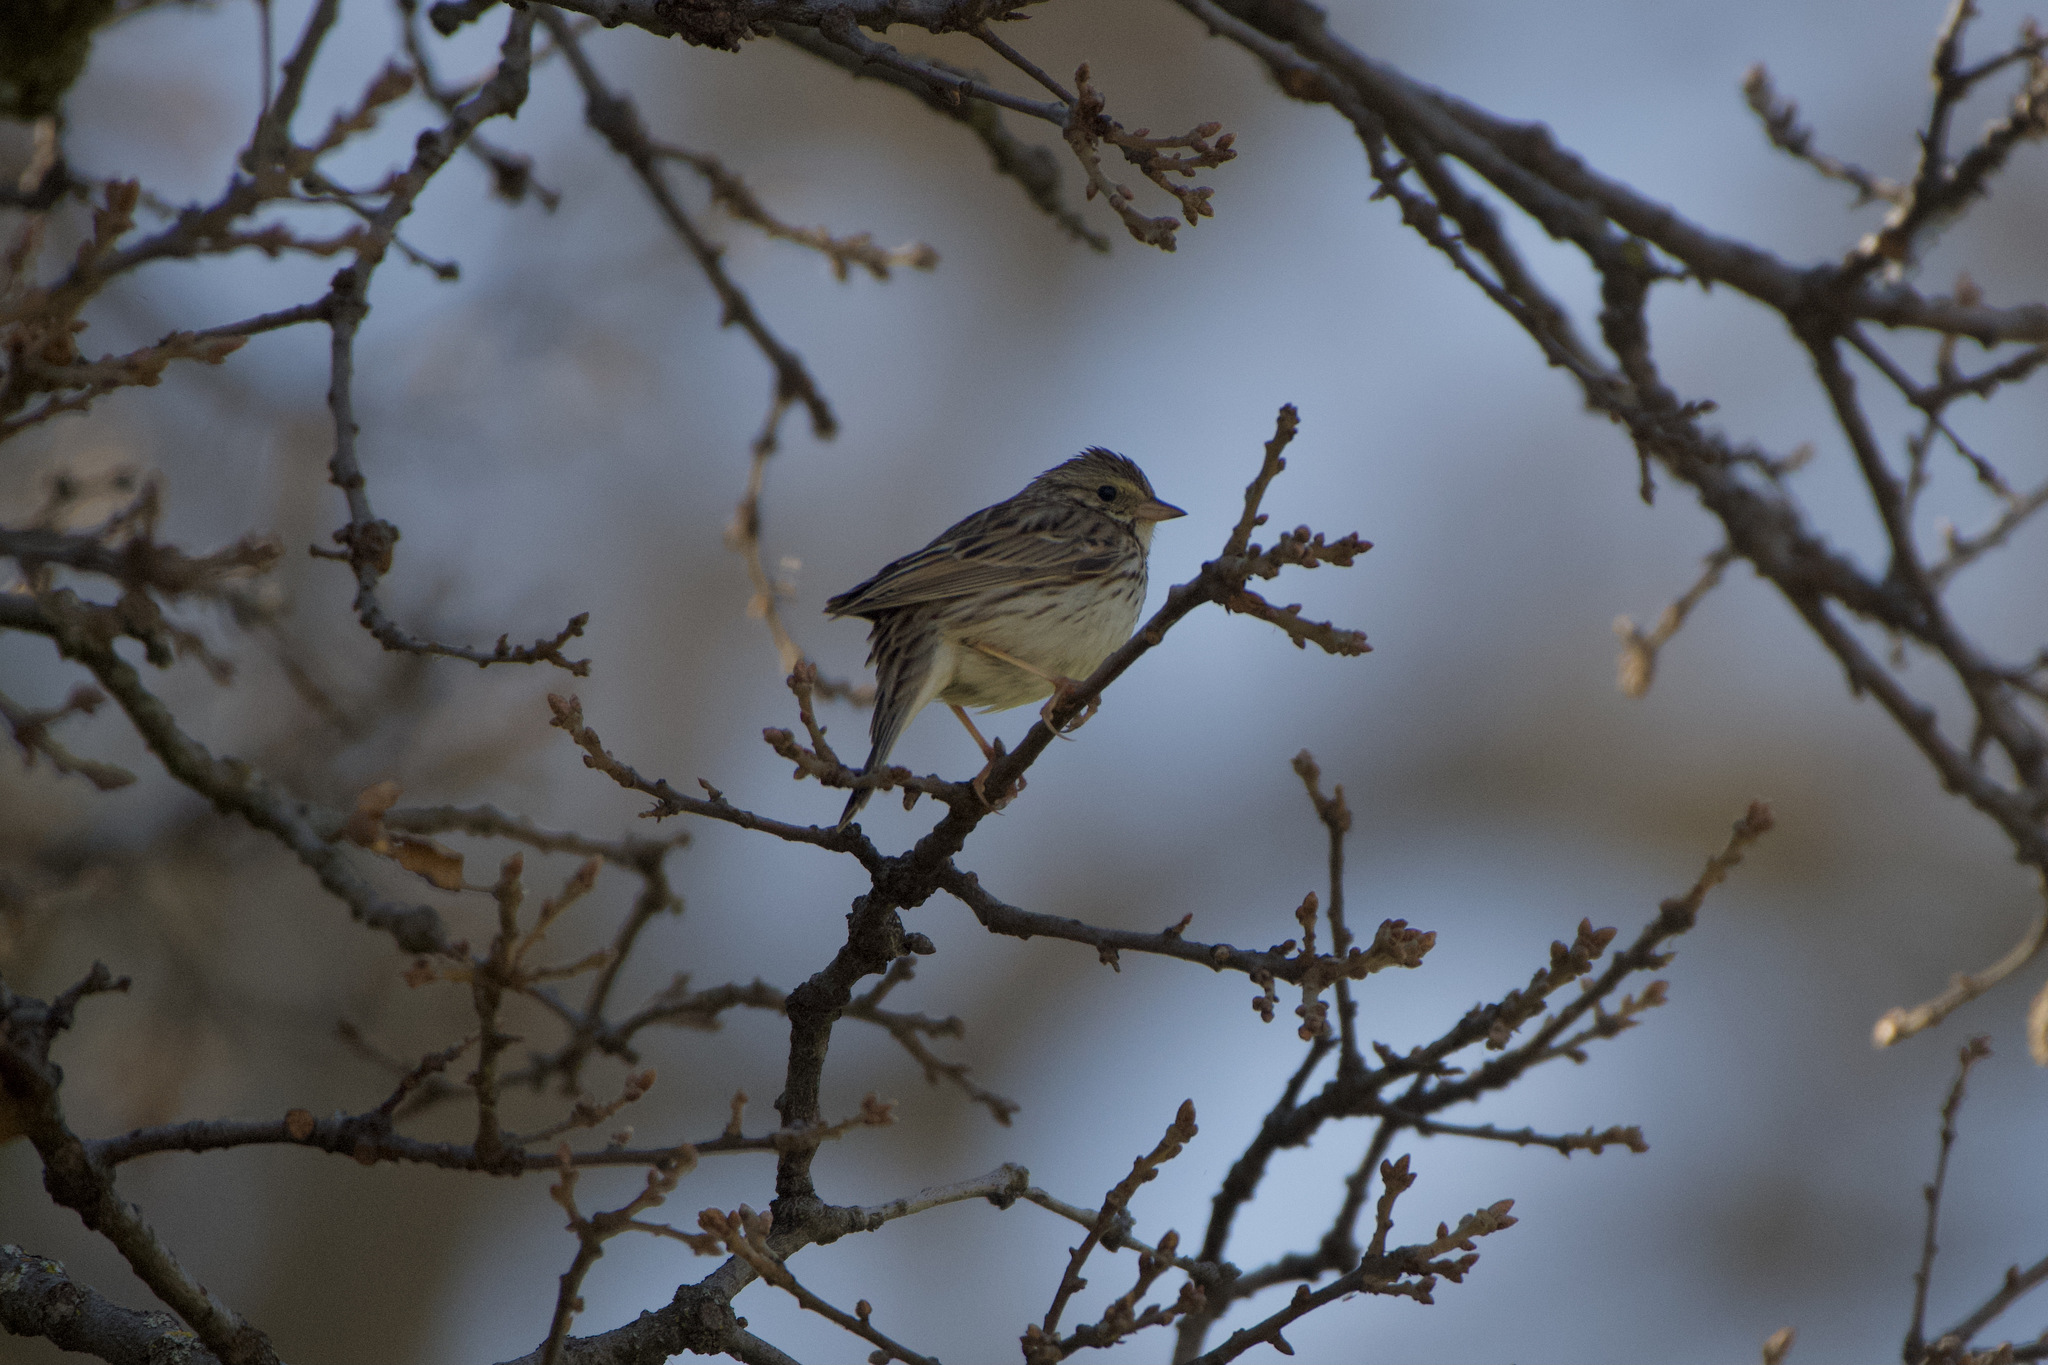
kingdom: Animalia
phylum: Chordata
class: Aves
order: Passeriformes
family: Passerellidae
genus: Passerculus
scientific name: Passerculus sandwichensis
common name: Savannah sparrow
